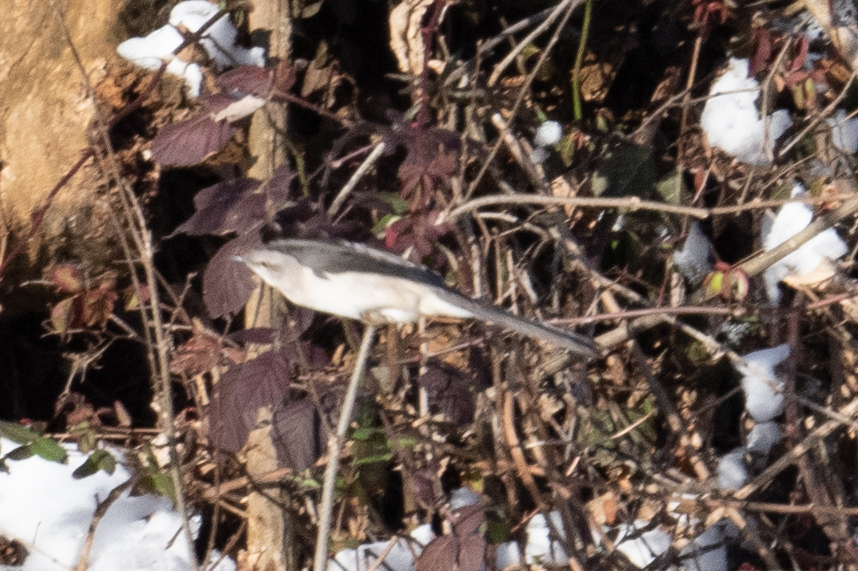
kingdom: Animalia
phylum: Chordata
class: Aves
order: Passeriformes
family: Mimidae
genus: Mimus
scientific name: Mimus polyglottos
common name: Northern mockingbird
